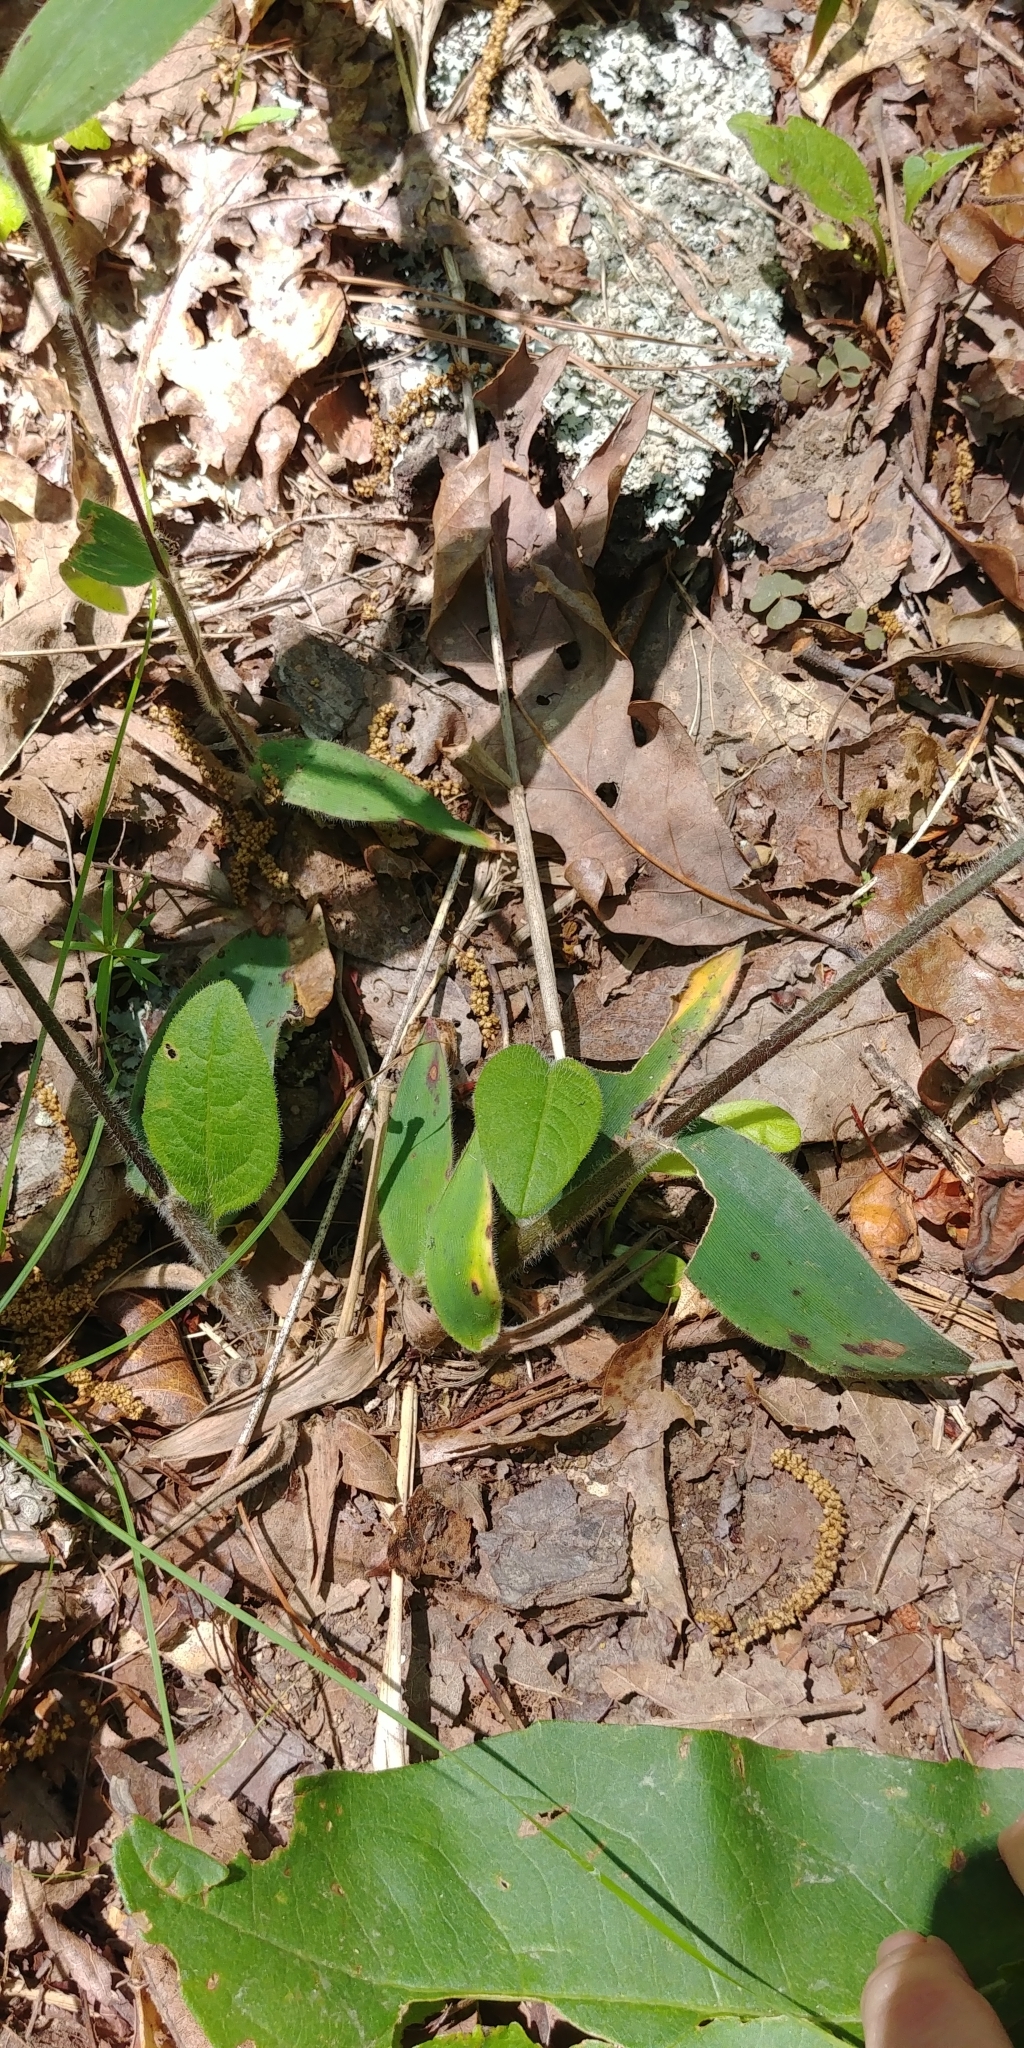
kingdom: Plantae
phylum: Tracheophyta
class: Liliopsida
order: Poales
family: Poaceae
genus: Dichanthelium
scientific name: Dichanthelium ravenelii
